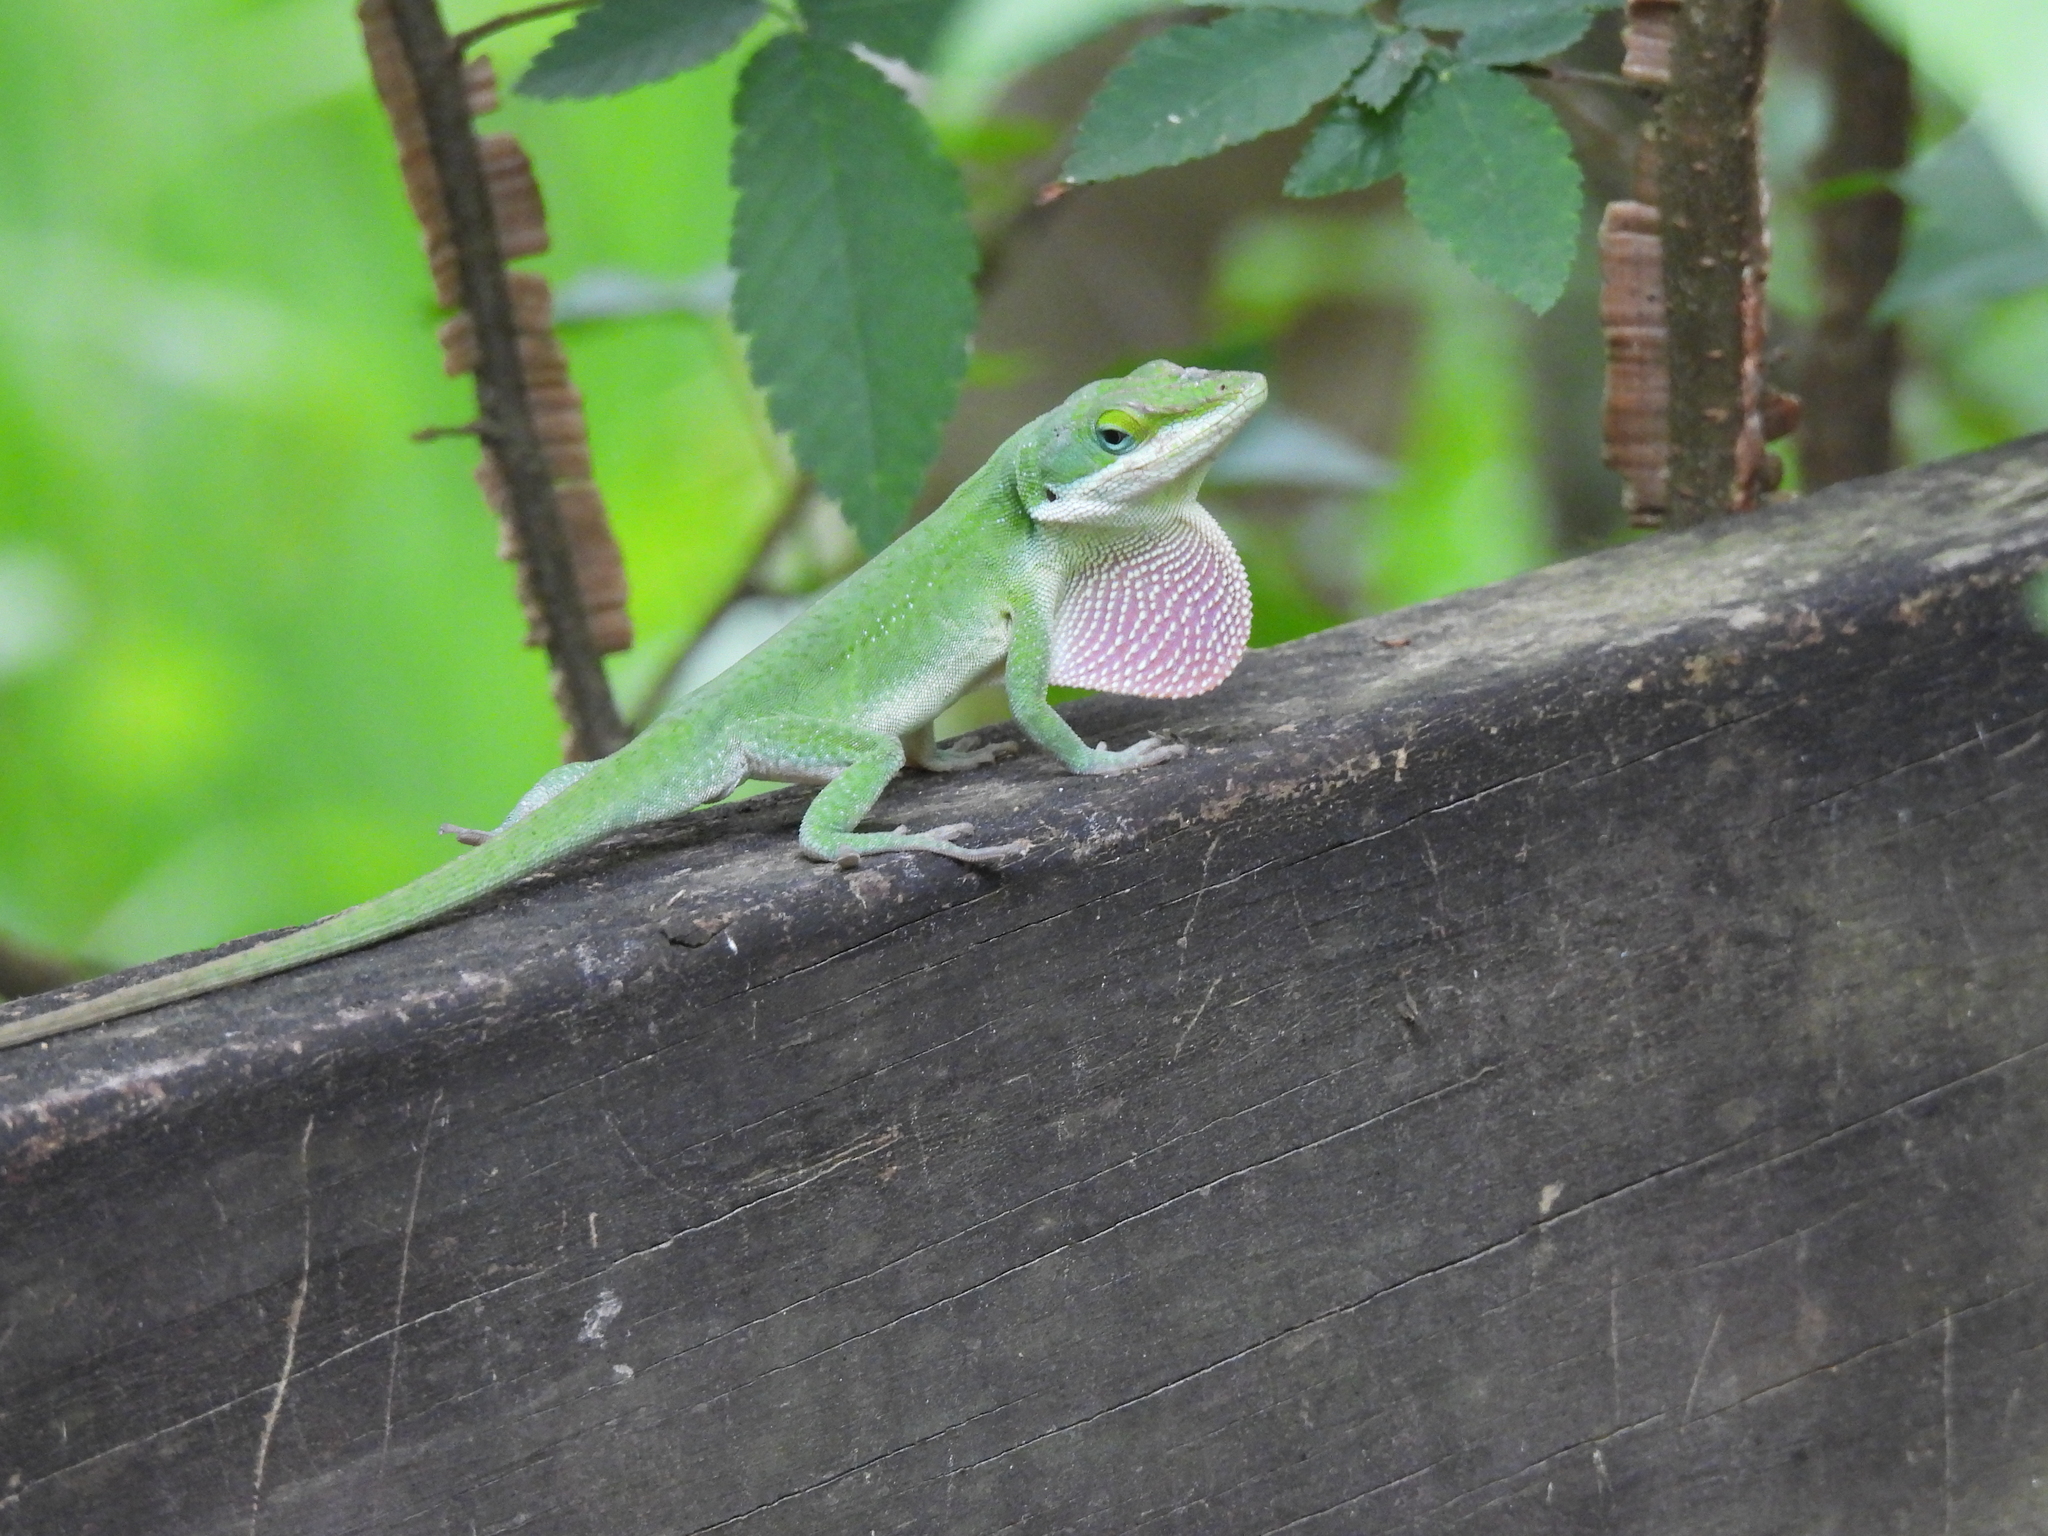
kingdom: Animalia
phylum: Chordata
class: Squamata
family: Dactyloidae
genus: Anolis
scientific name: Anolis carolinensis
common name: Green anole
